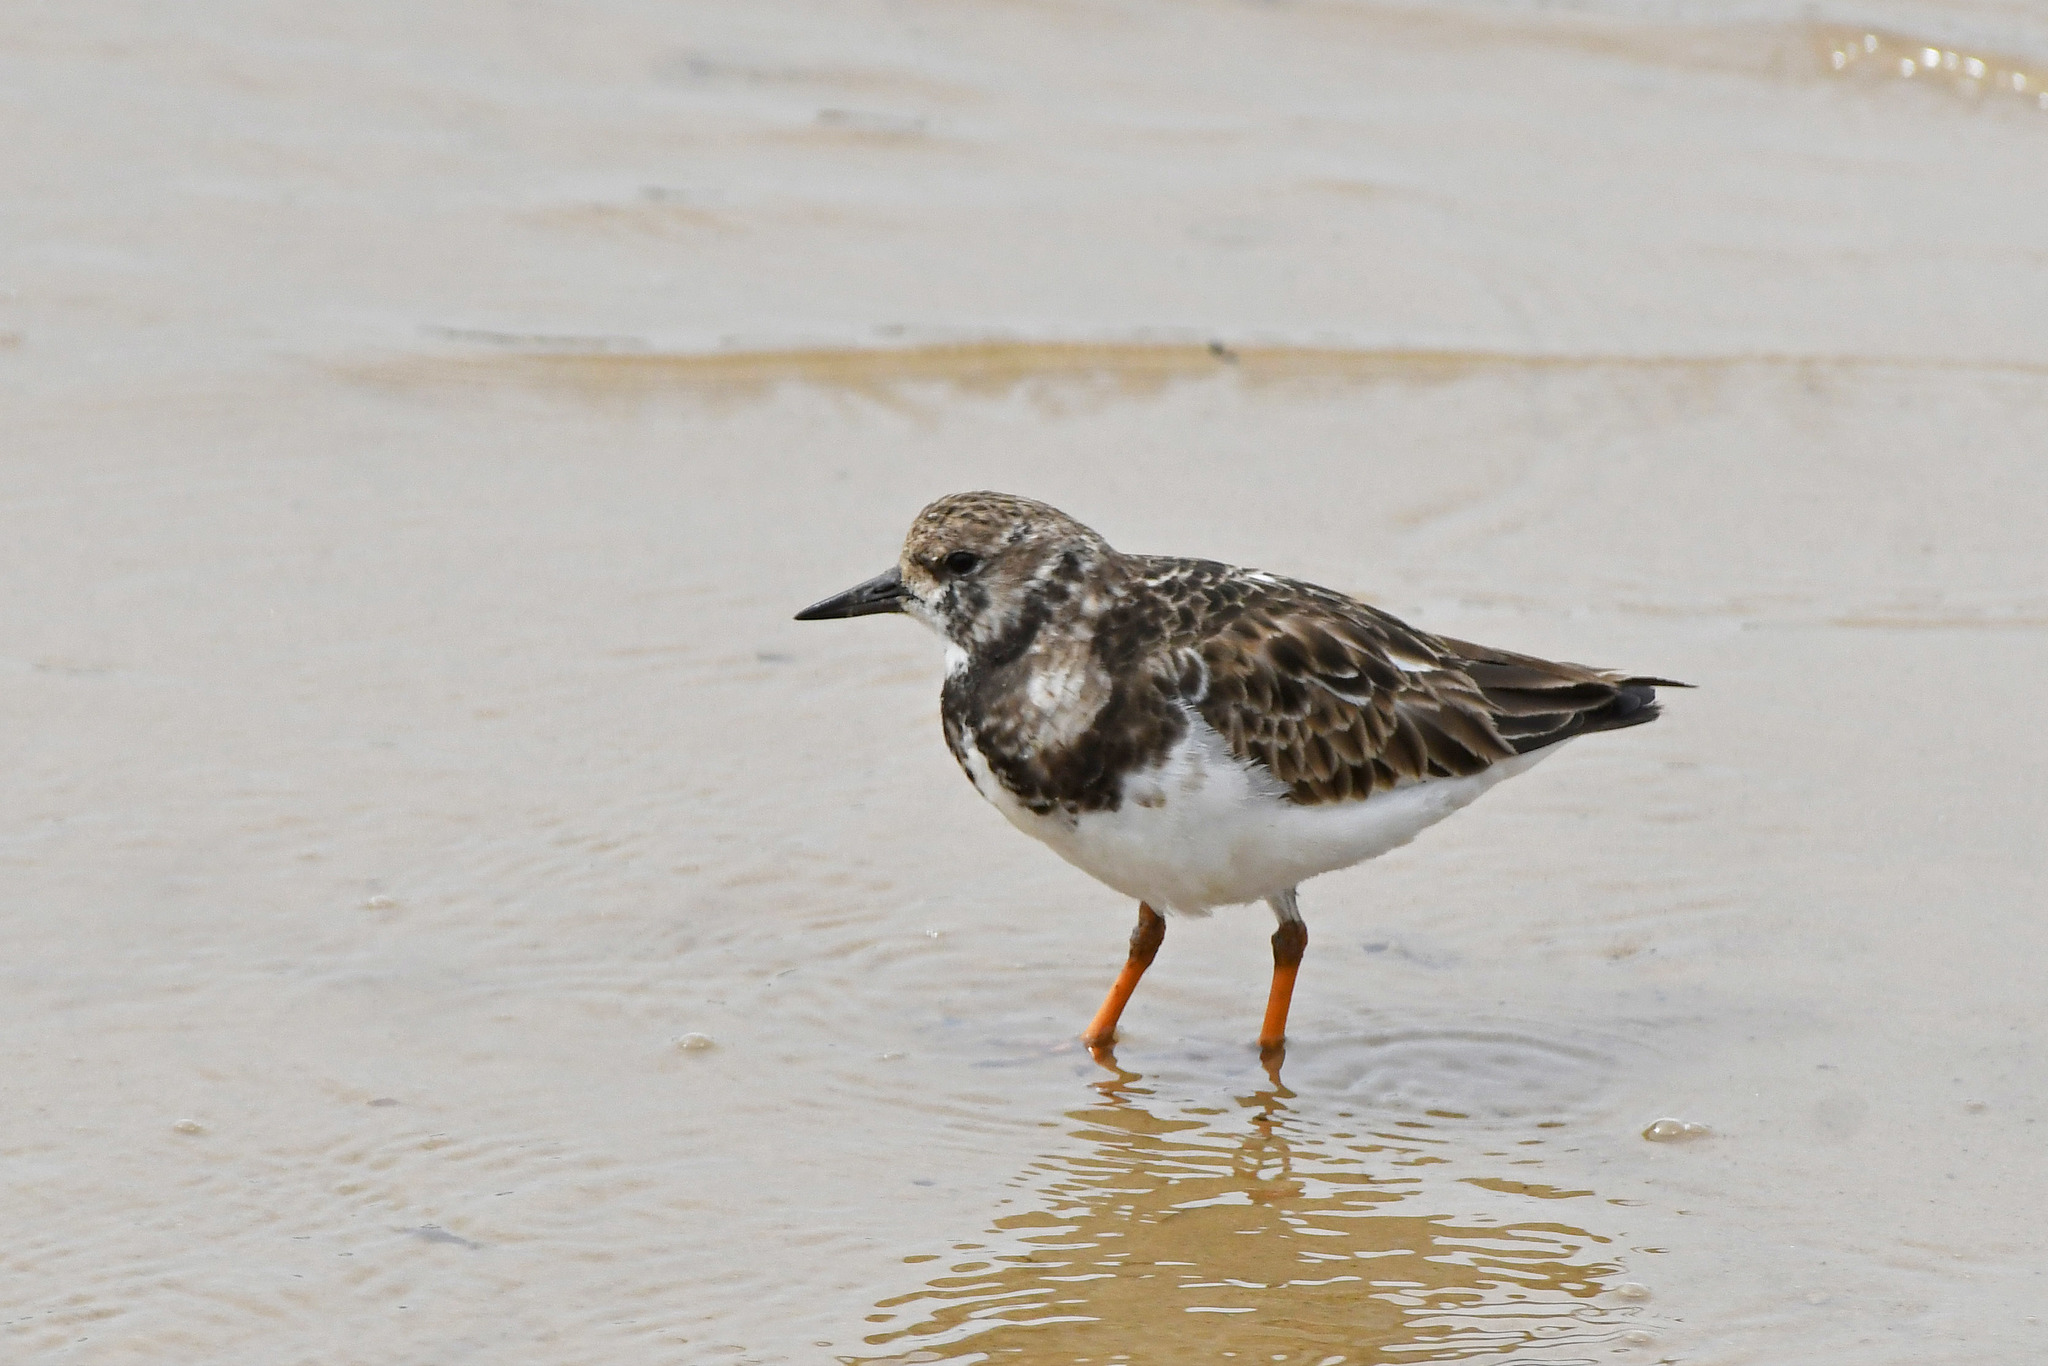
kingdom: Animalia
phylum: Chordata
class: Aves
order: Charadriiformes
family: Scolopacidae
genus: Arenaria
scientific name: Arenaria interpres
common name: Ruddy turnstone
